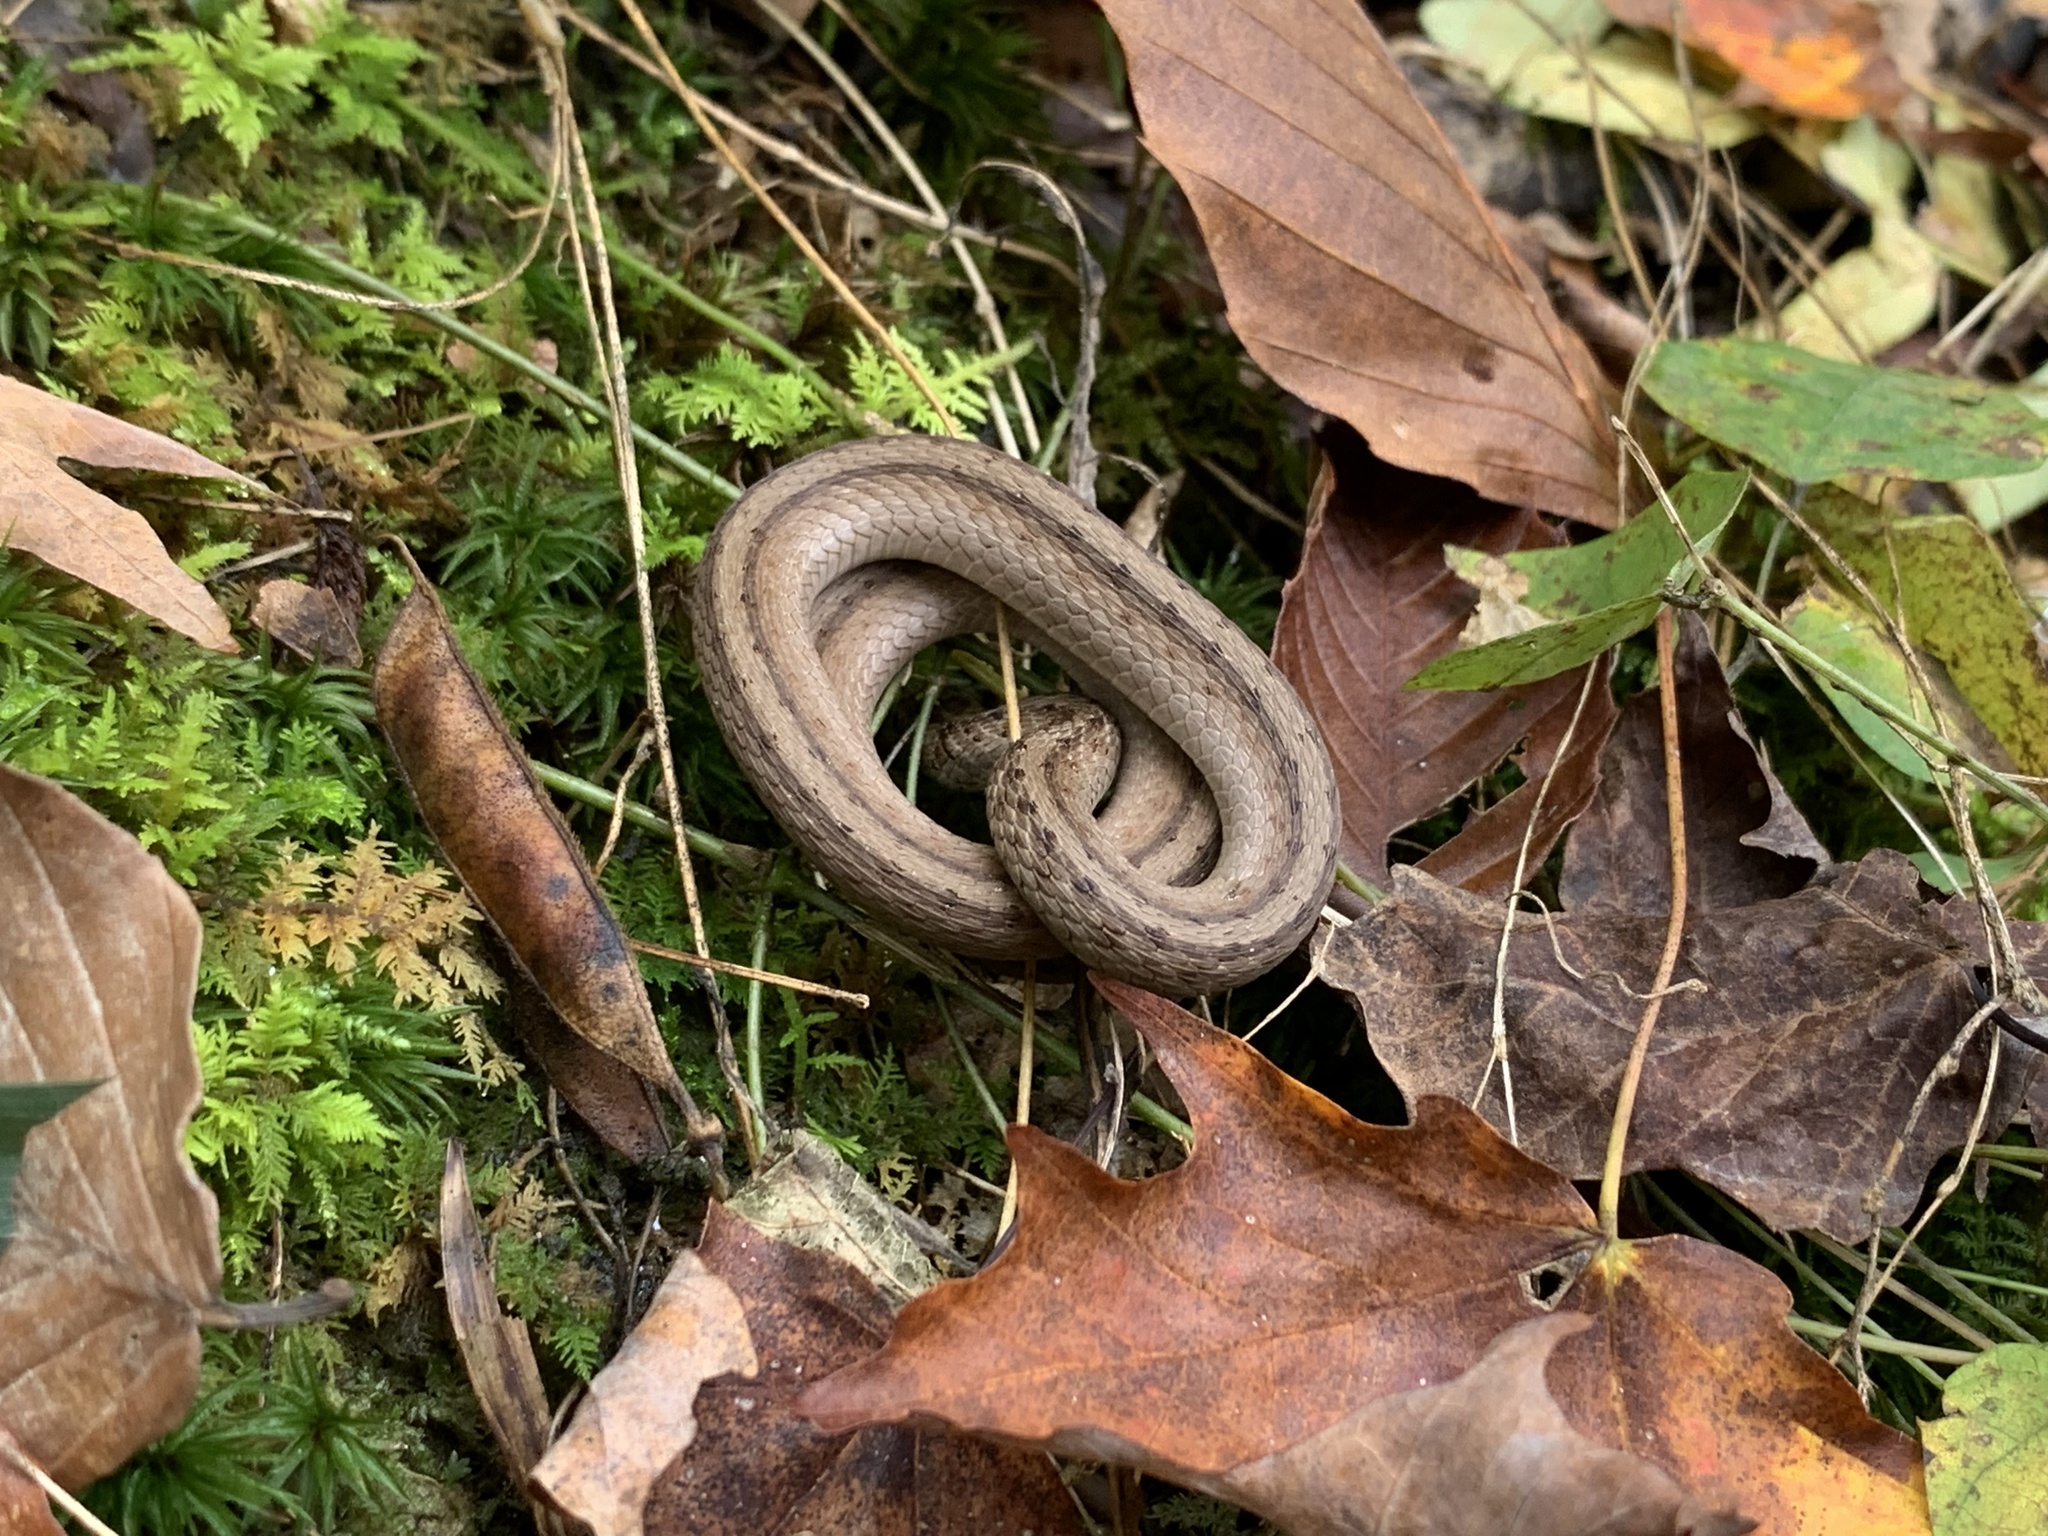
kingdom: Animalia
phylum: Chordata
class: Squamata
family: Colubridae
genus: Storeria
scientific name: Storeria dekayi
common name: (dekay’s) brown snake
